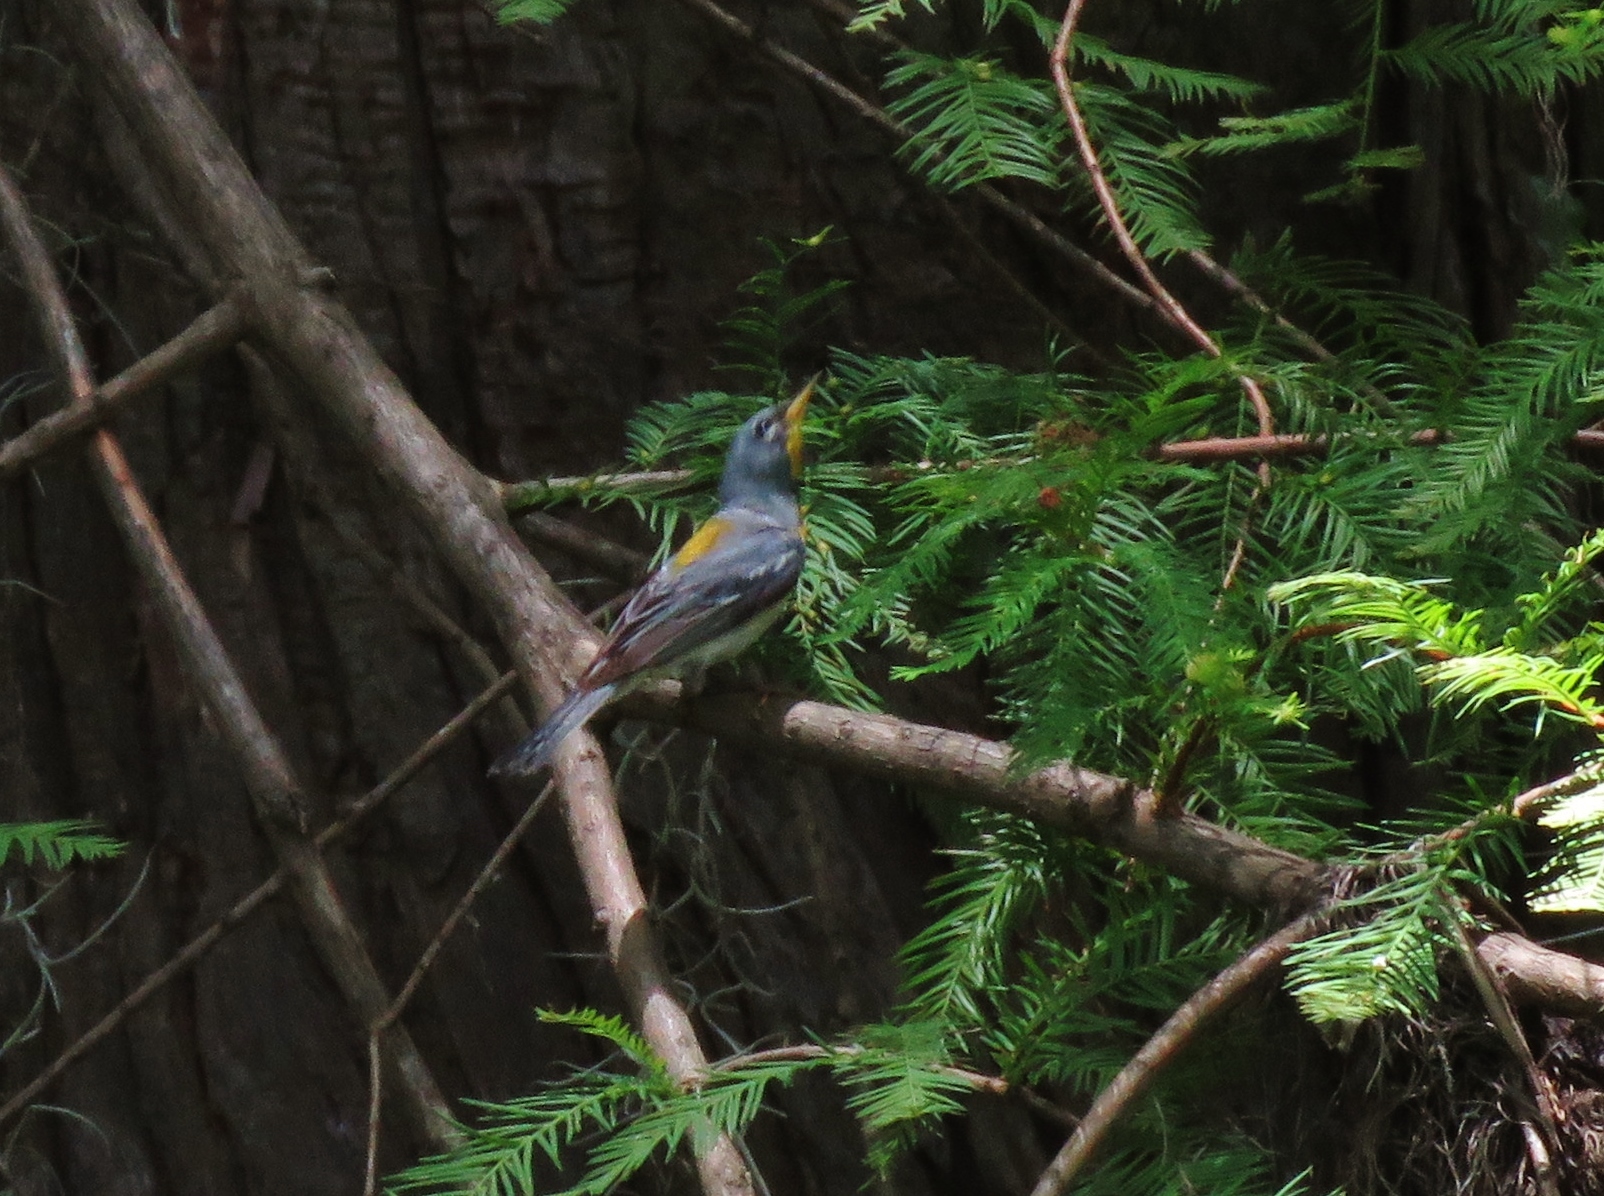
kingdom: Animalia
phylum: Chordata
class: Aves
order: Passeriformes
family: Parulidae
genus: Setophaga
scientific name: Setophaga americana
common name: Northern parula
